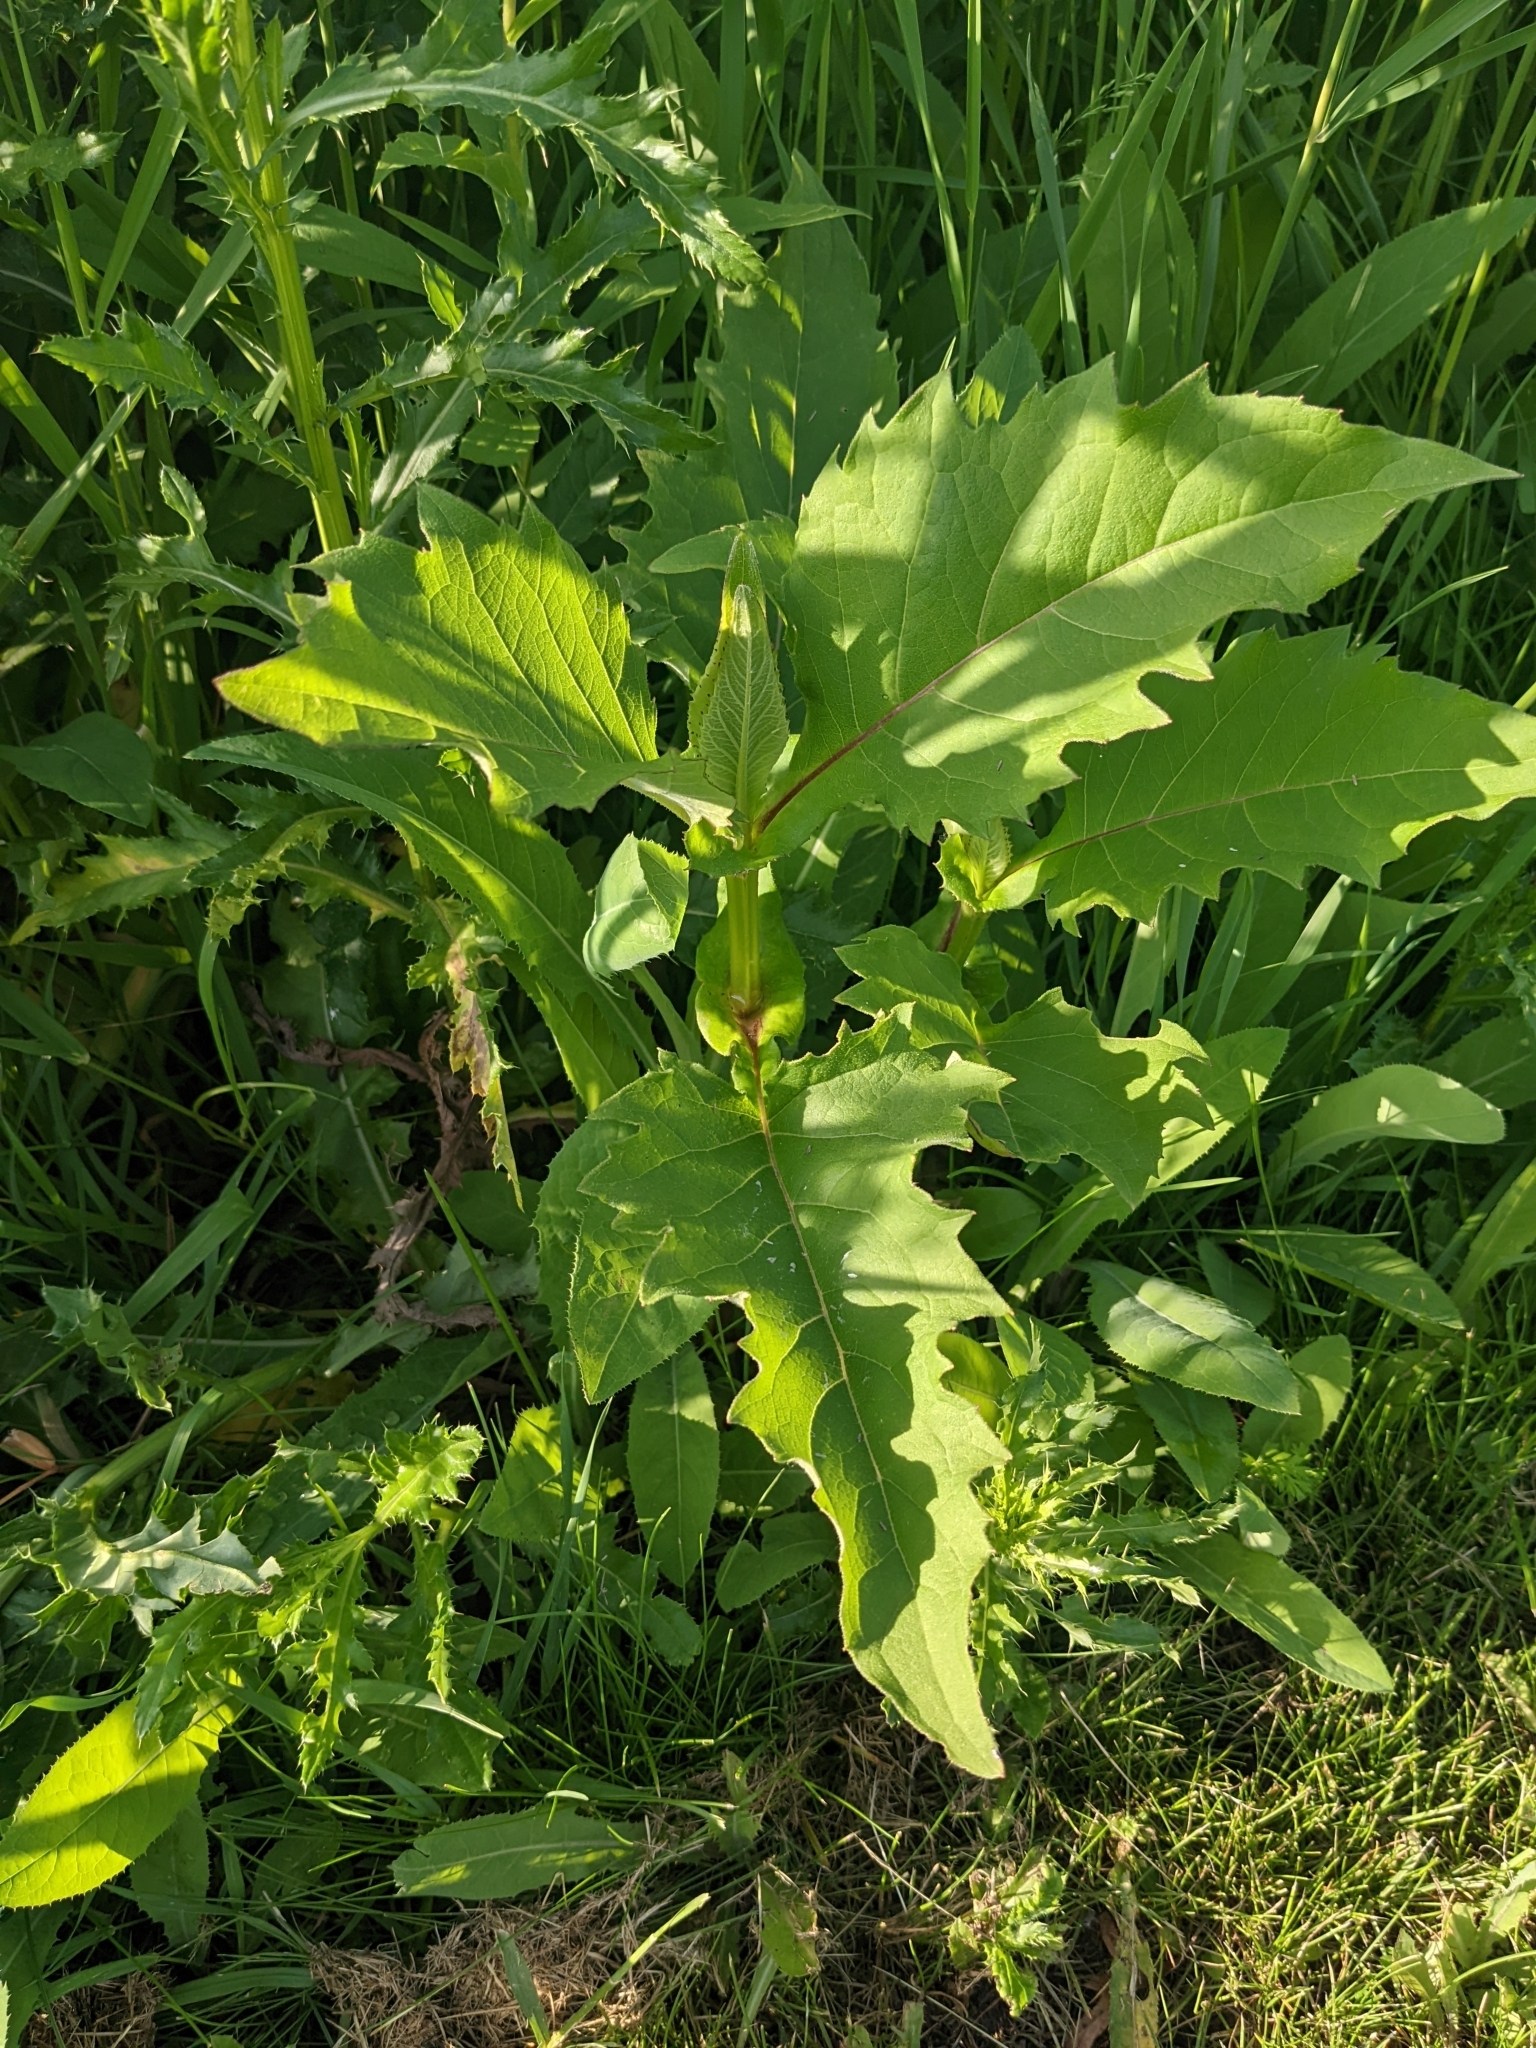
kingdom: Plantae
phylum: Tracheophyta
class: Magnoliopsida
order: Asterales
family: Asteraceae
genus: Silphium
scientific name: Silphium perfoliatum
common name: Cup-plant
